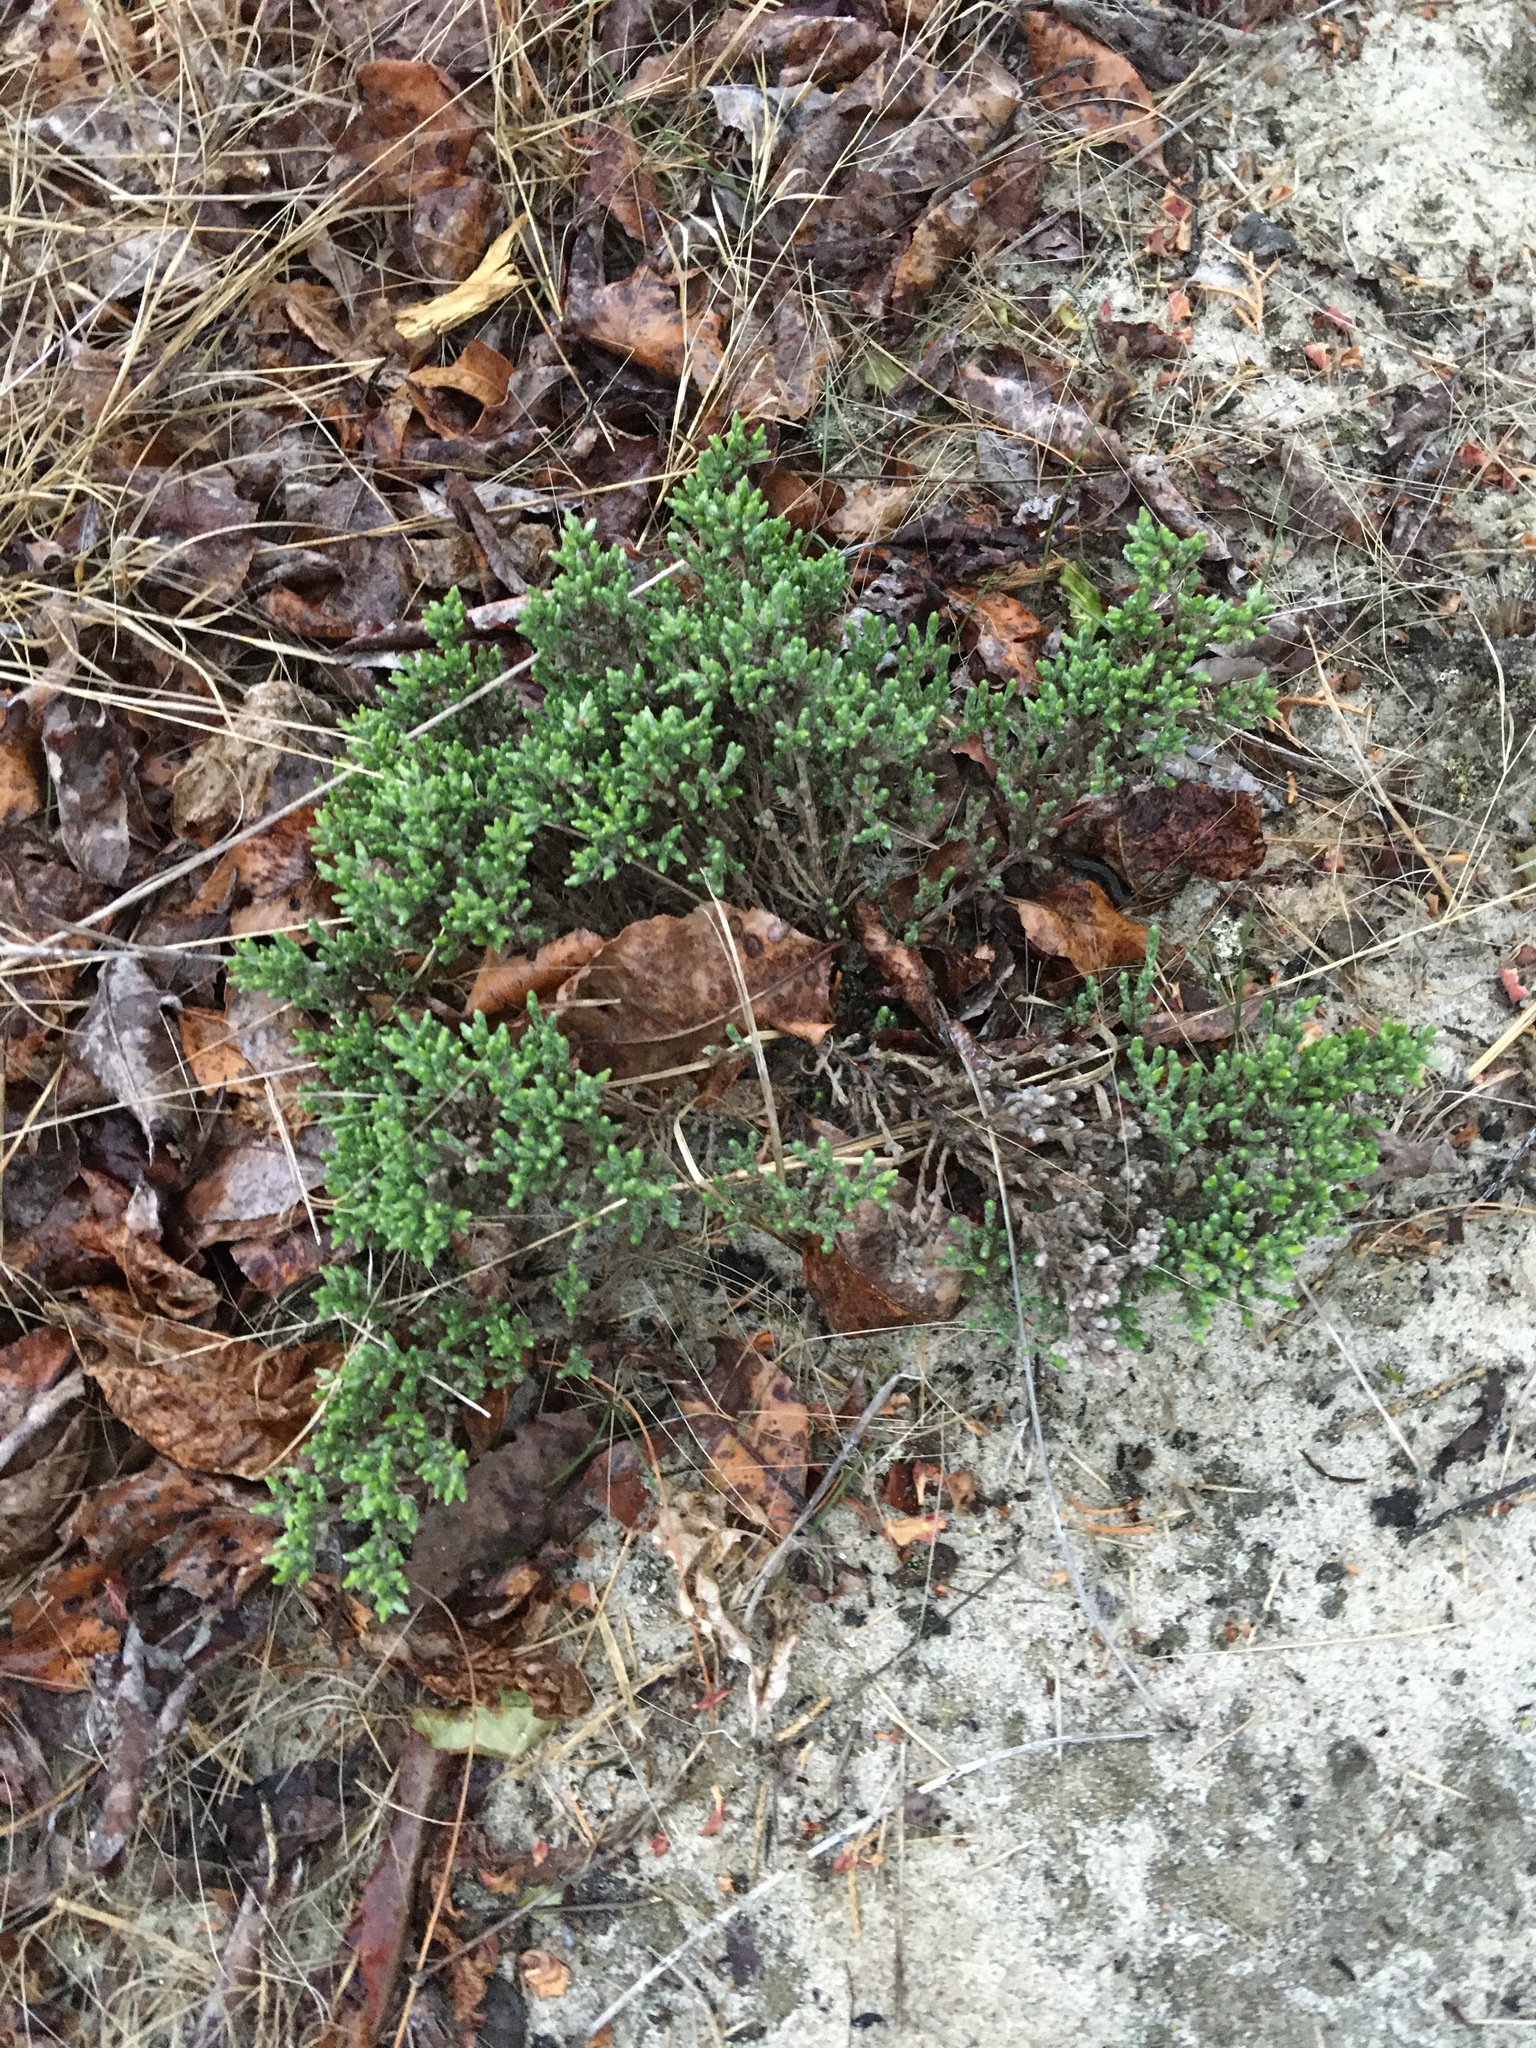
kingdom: Plantae
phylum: Tracheophyta
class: Magnoliopsida
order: Malvales
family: Cistaceae
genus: Hudsonia
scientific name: Hudsonia tomentosa
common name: Beach-heath
